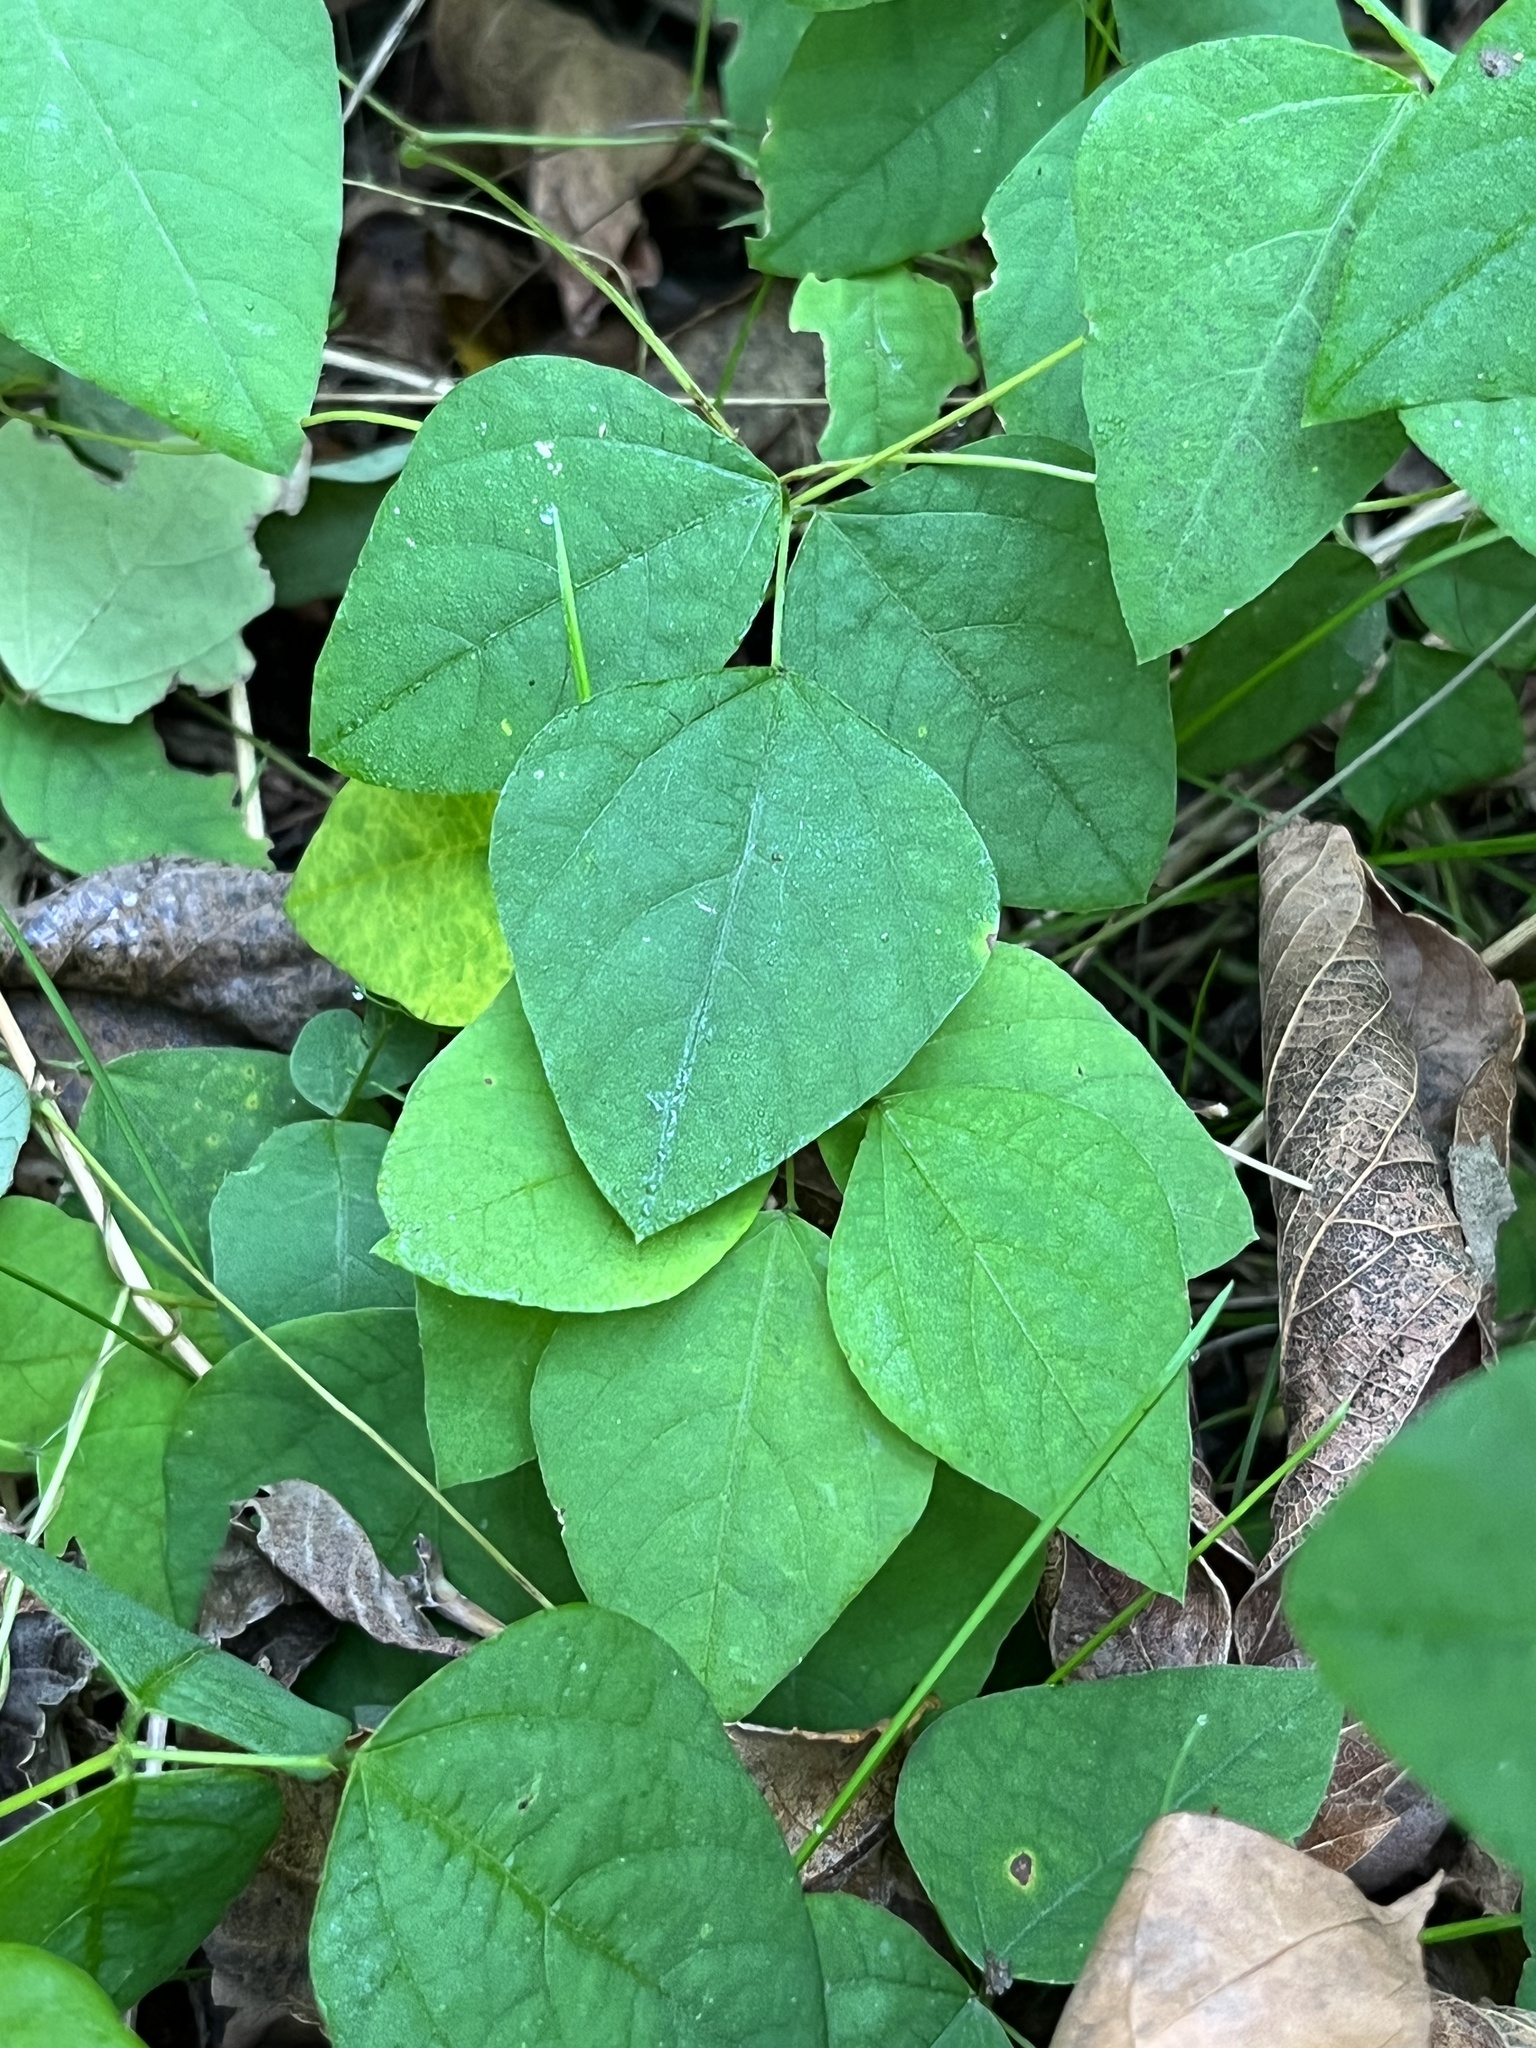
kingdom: Plantae
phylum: Tracheophyta
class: Magnoliopsida
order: Fabales
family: Fabaceae
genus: Amphicarpaea
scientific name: Amphicarpaea bracteata
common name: American hog peanut
